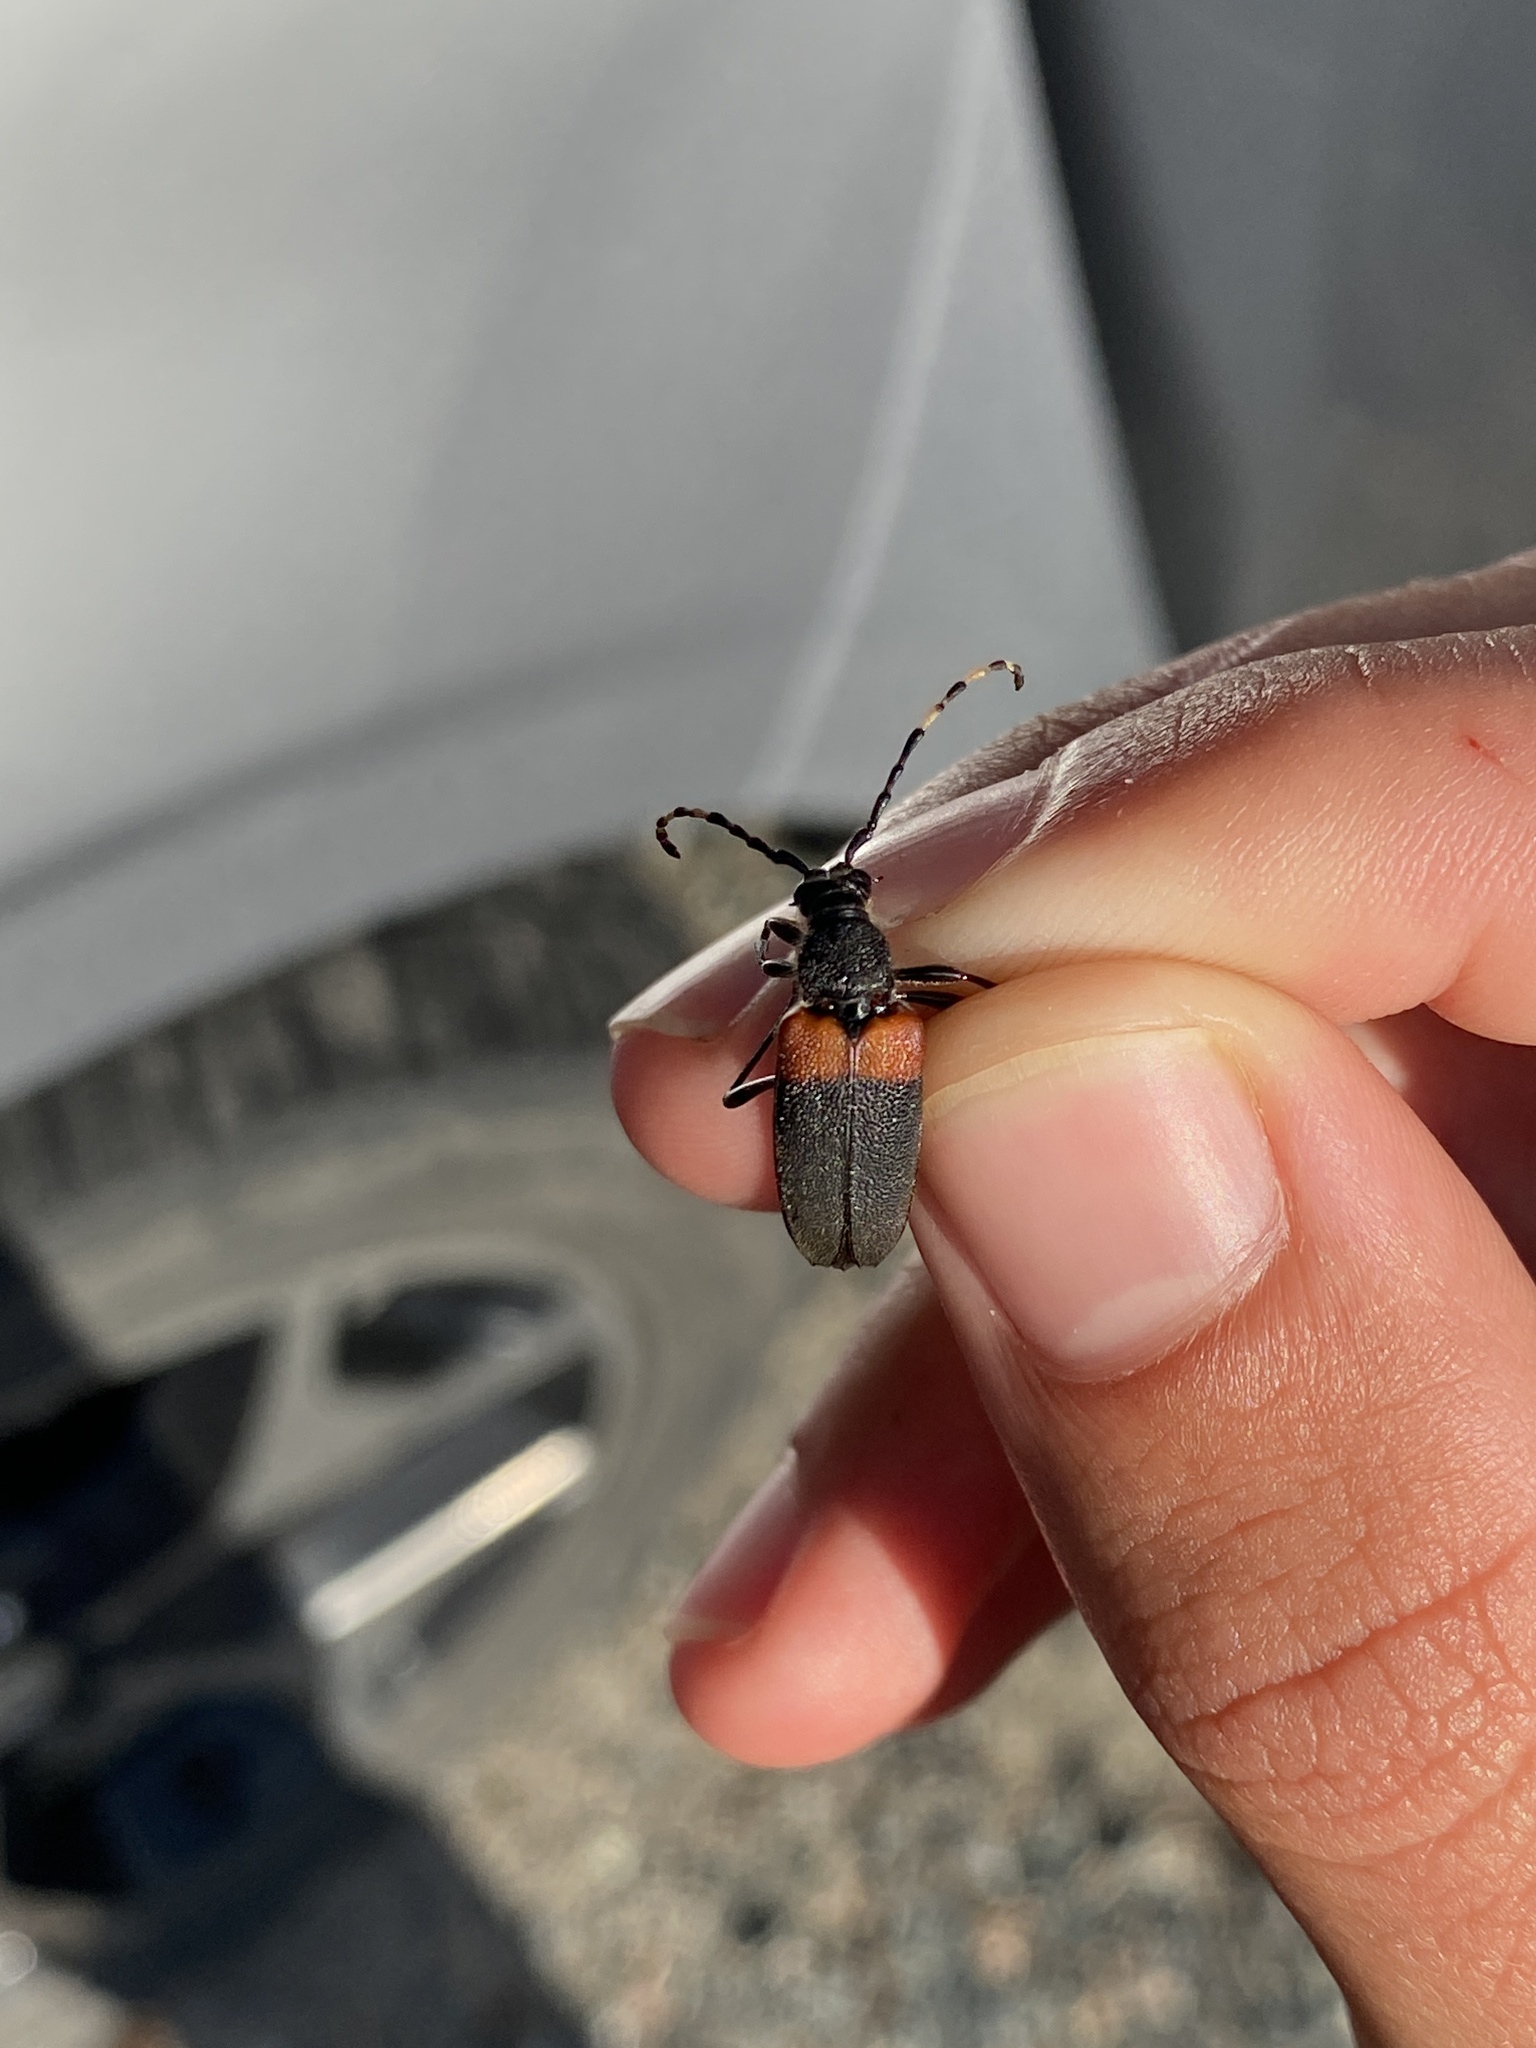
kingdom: Animalia
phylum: Arthropoda
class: Insecta
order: Coleoptera
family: Cerambycidae
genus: Stictoleptura
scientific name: Stictoleptura canadensis
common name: Red-shouldered pine borer
